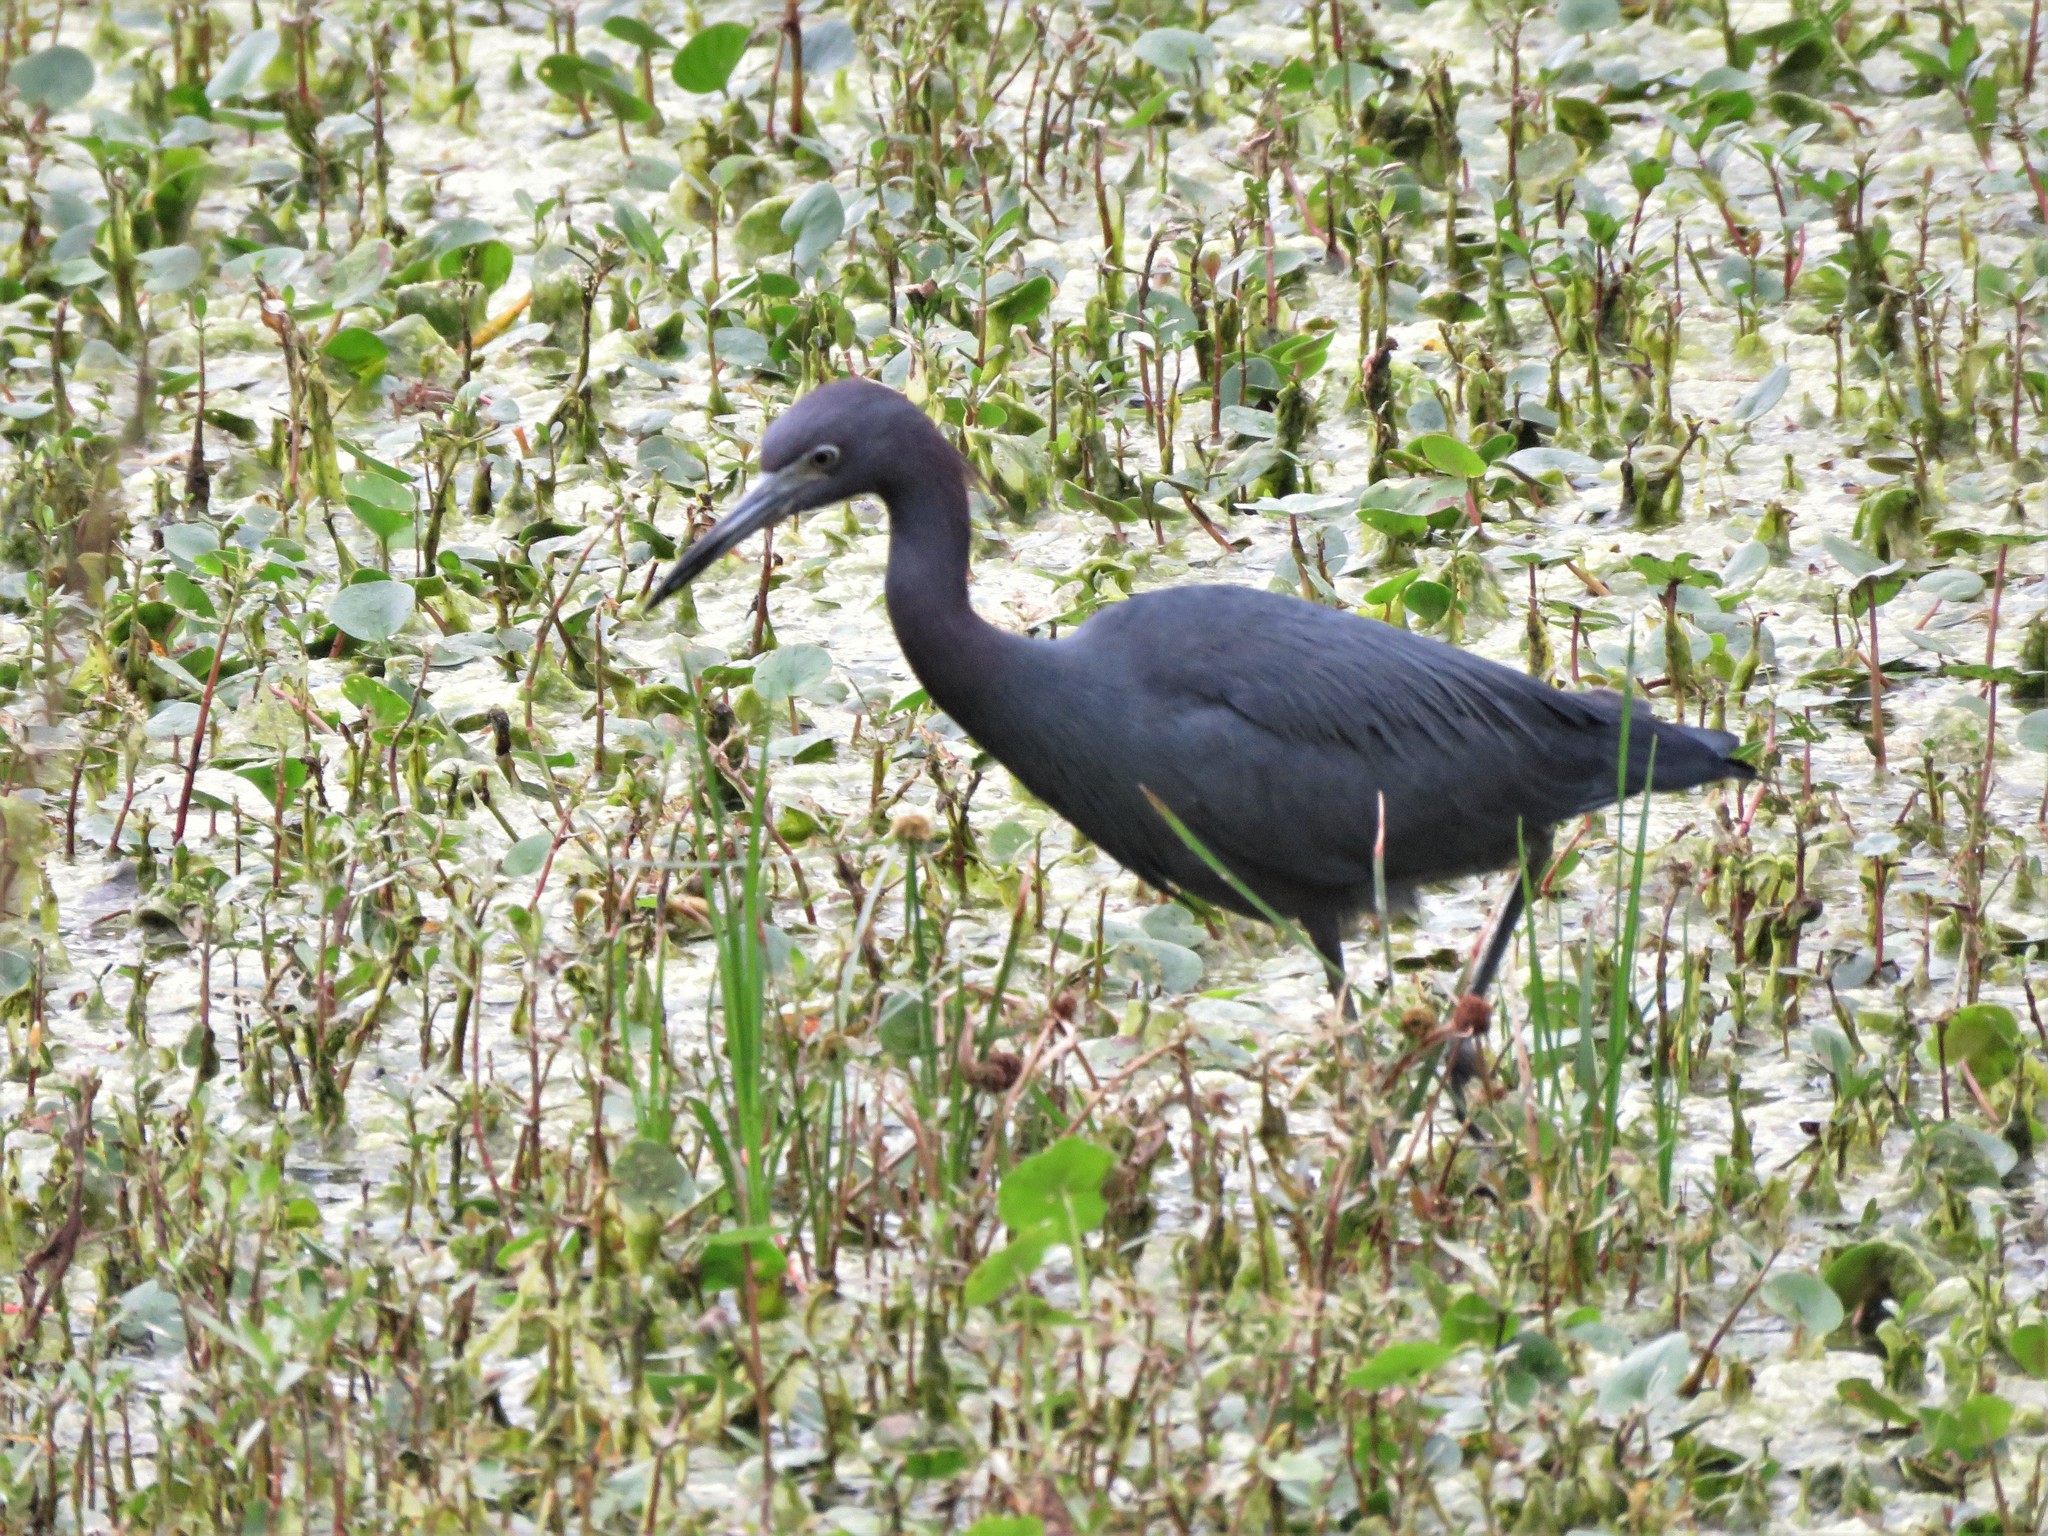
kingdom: Animalia
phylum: Chordata
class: Aves
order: Pelecaniformes
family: Ardeidae
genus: Egretta
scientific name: Egretta caerulea
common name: Little blue heron
